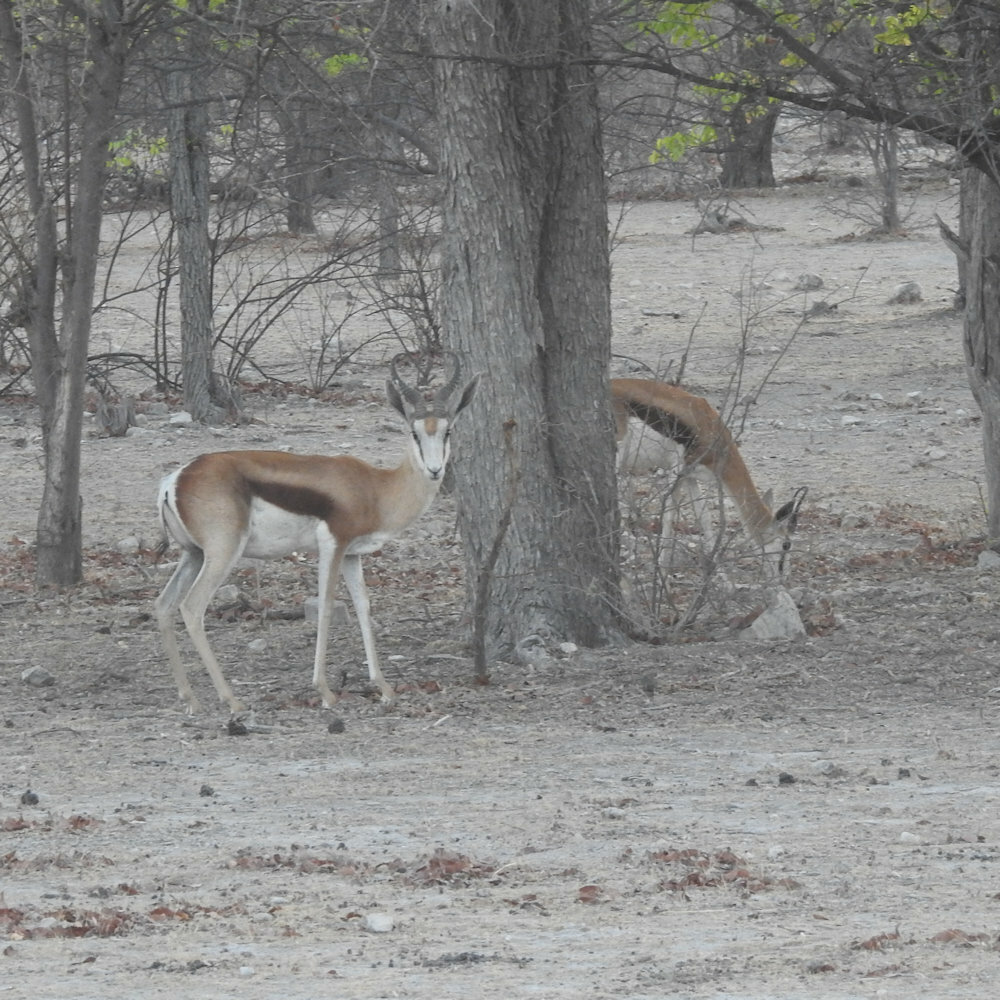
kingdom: Animalia
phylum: Chordata
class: Mammalia
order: Artiodactyla
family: Bovidae
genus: Antidorcas
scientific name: Antidorcas marsupialis
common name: Springbok
